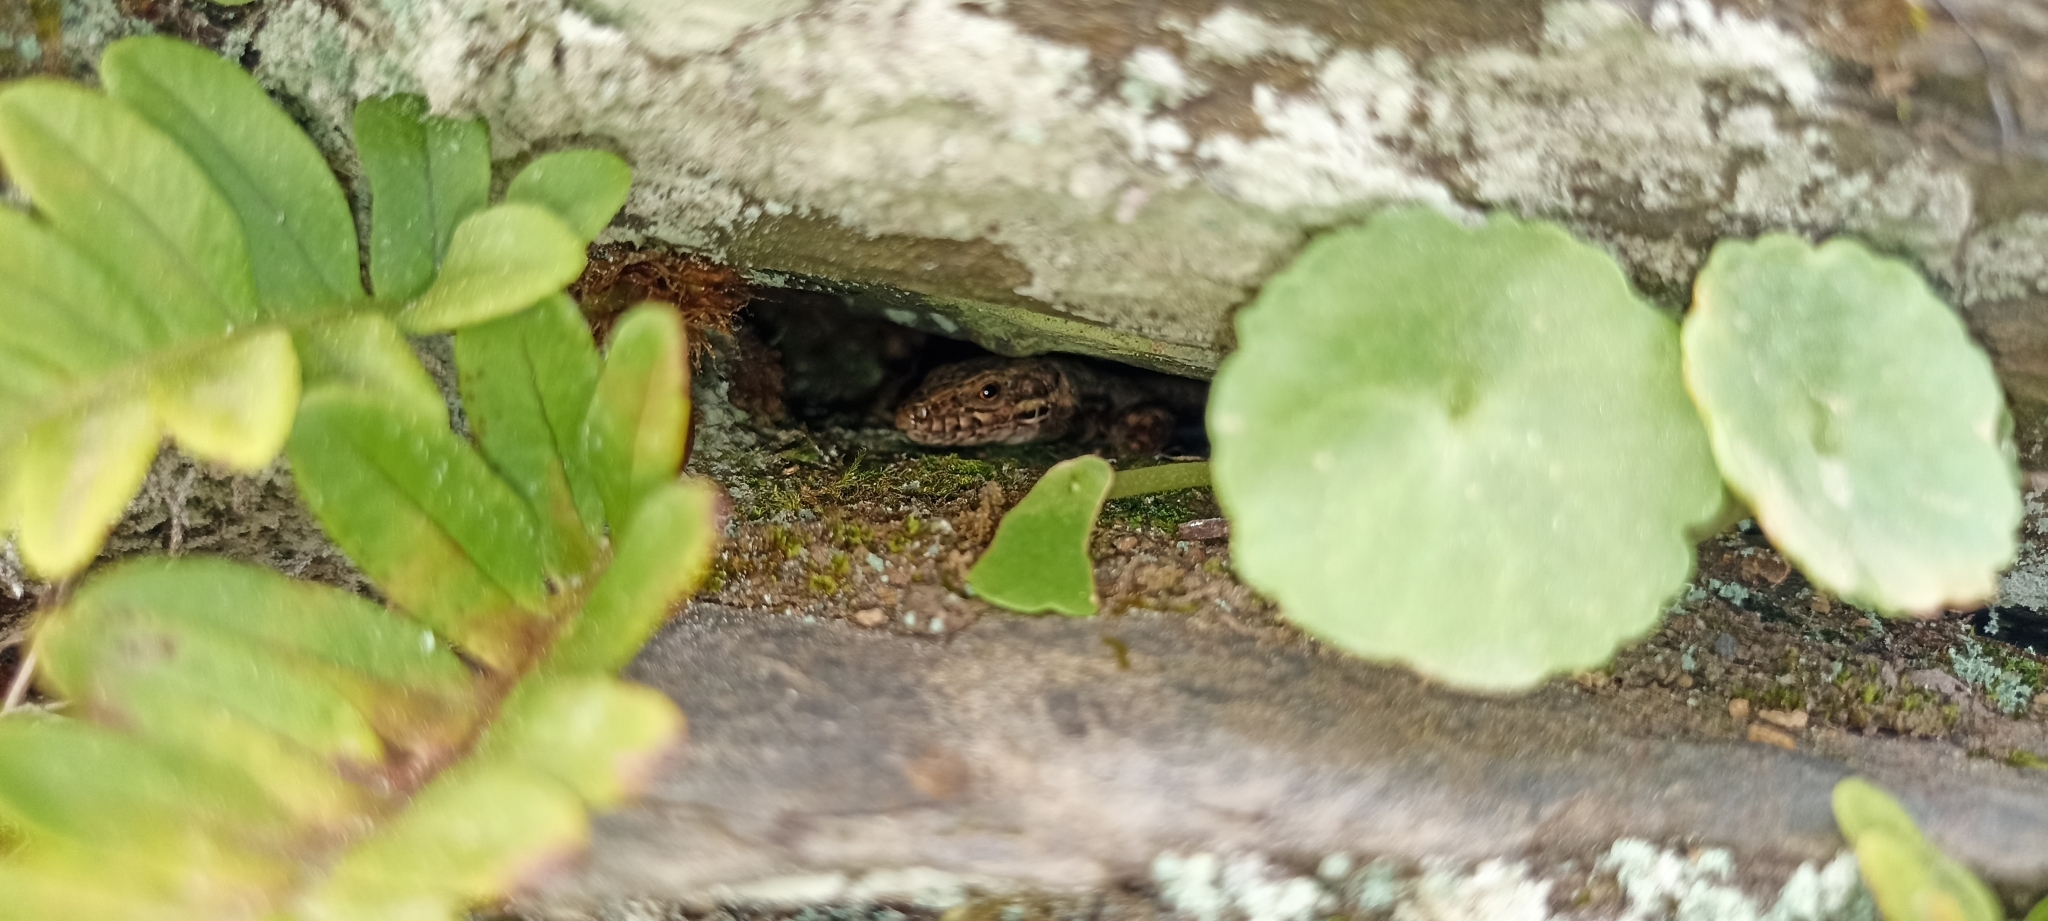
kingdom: Animalia
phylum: Chordata
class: Squamata
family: Lacertidae
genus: Podarcis
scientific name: Podarcis muralis
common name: Common wall lizard
